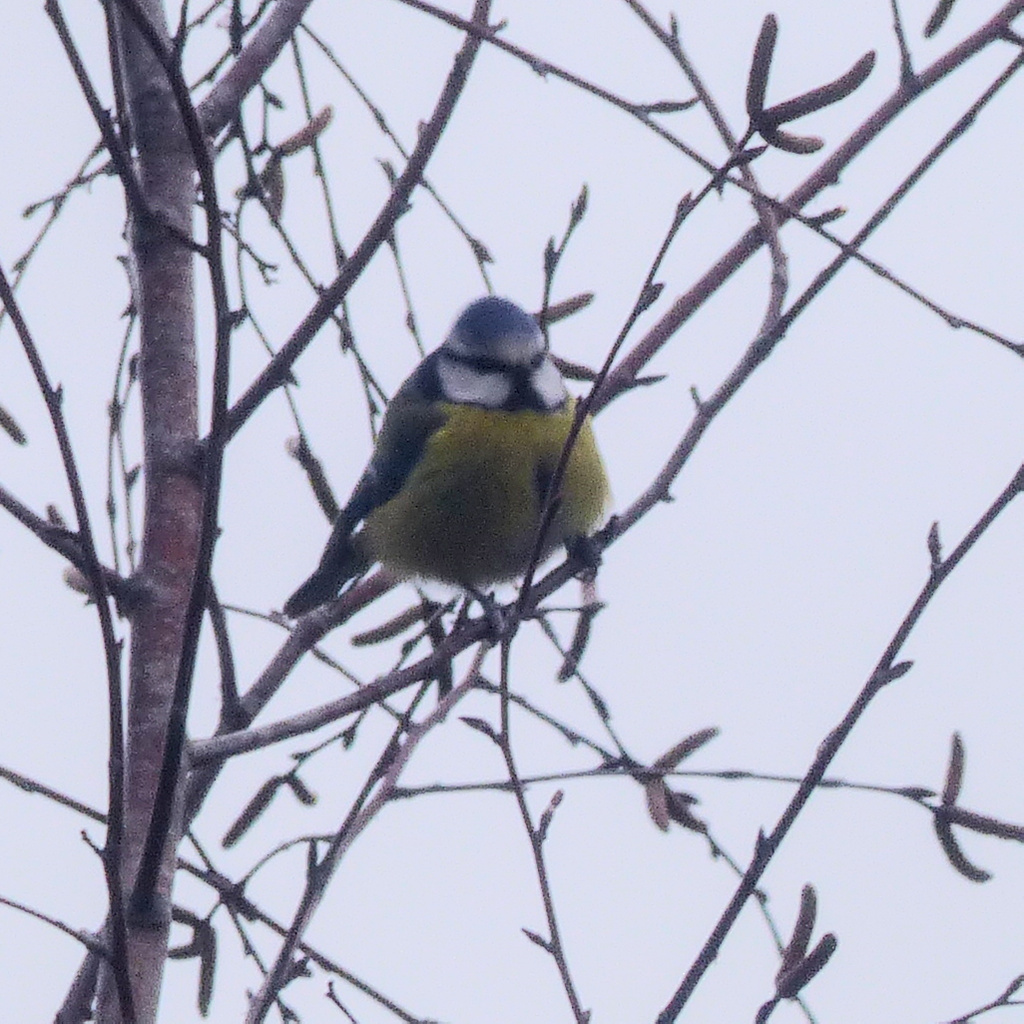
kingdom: Animalia
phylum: Chordata
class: Aves
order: Passeriformes
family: Paridae
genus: Cyanistes
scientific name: Cyanistes caeruleus
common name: Eurasian blue tit
